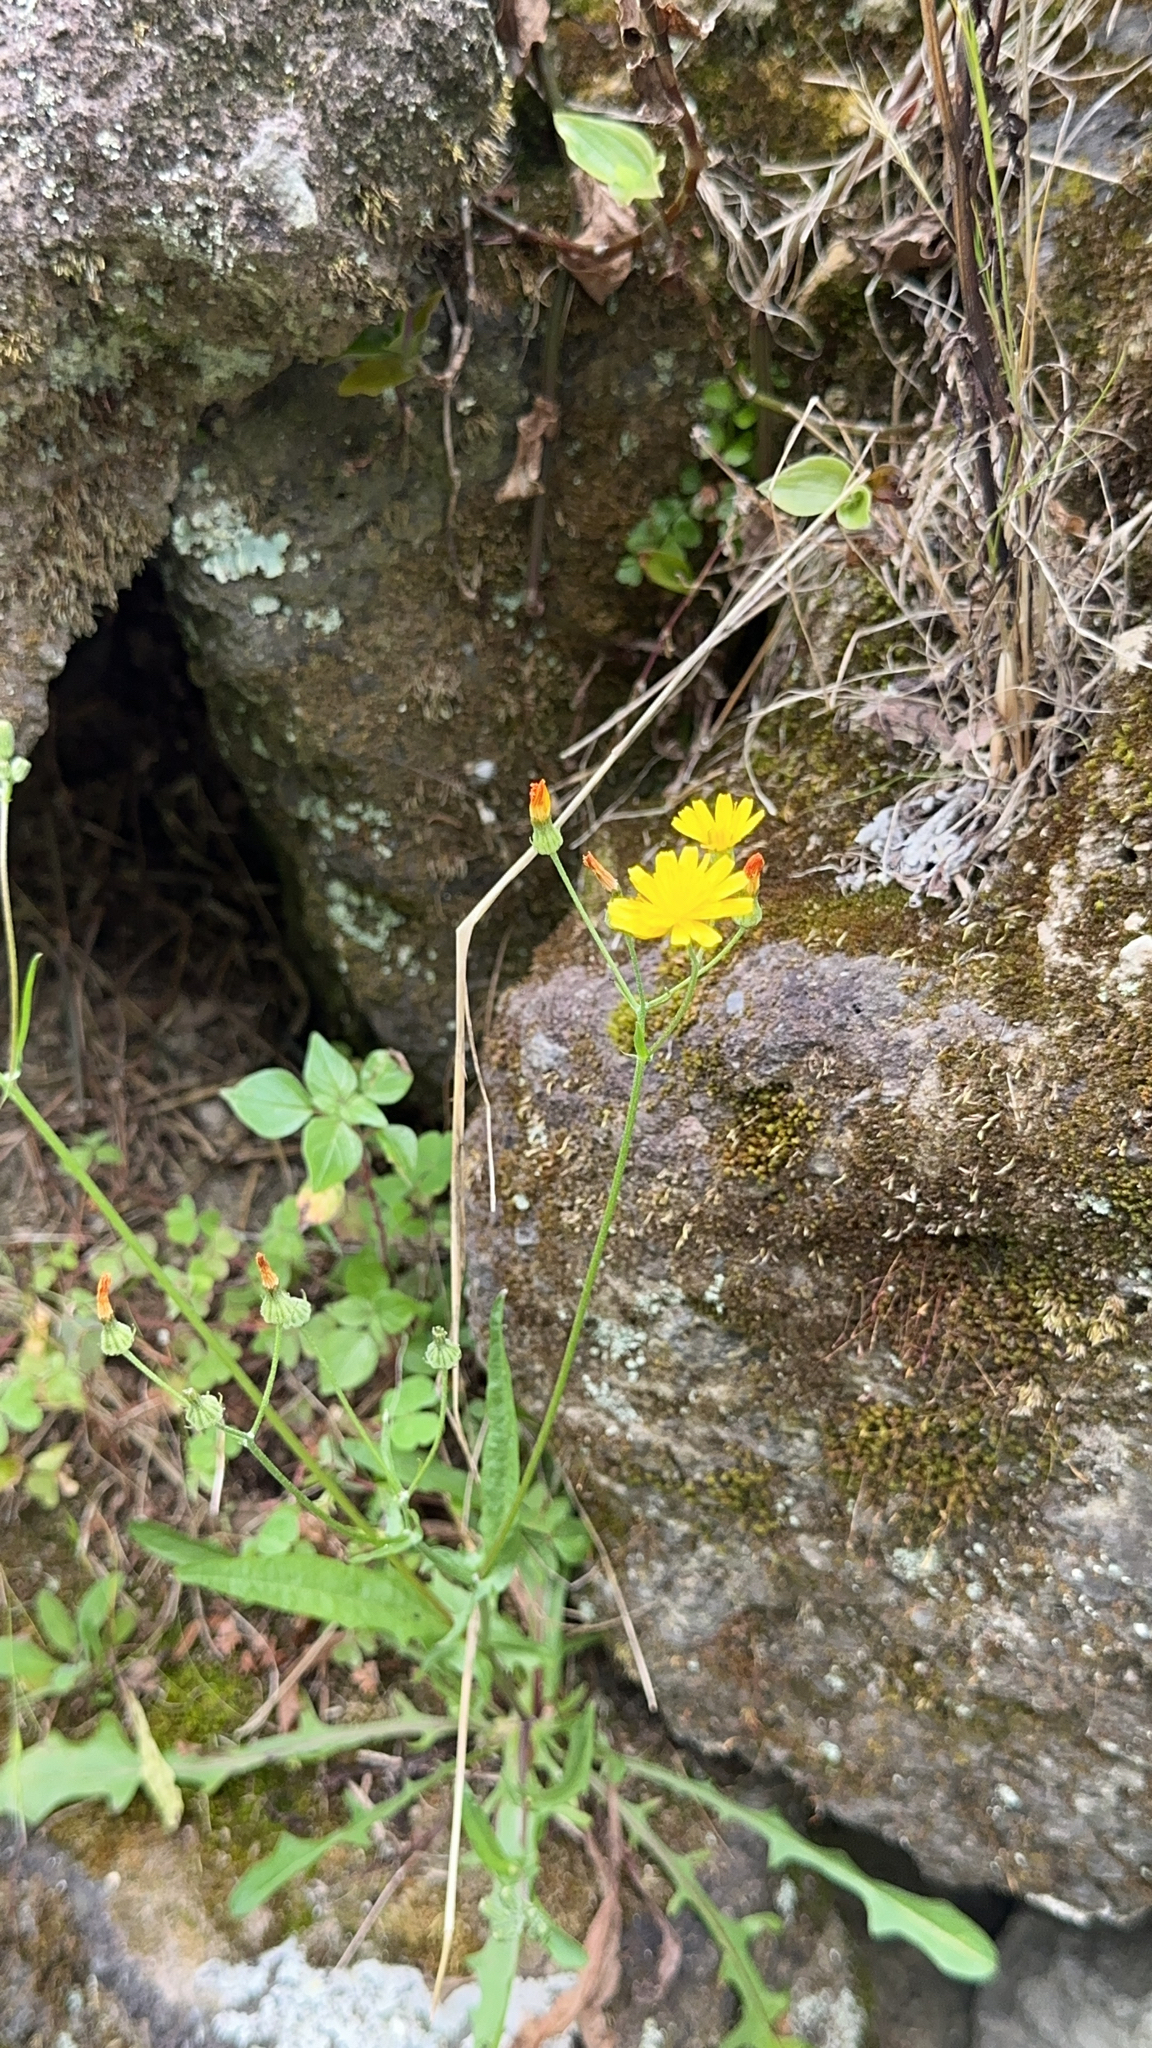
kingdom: Plantae
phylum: Tracheophyta
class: Magnoliopsida
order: Asterales
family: Asteraceae
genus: Crepis
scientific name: Crepis capillaris
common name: Smooth hawksbeard
